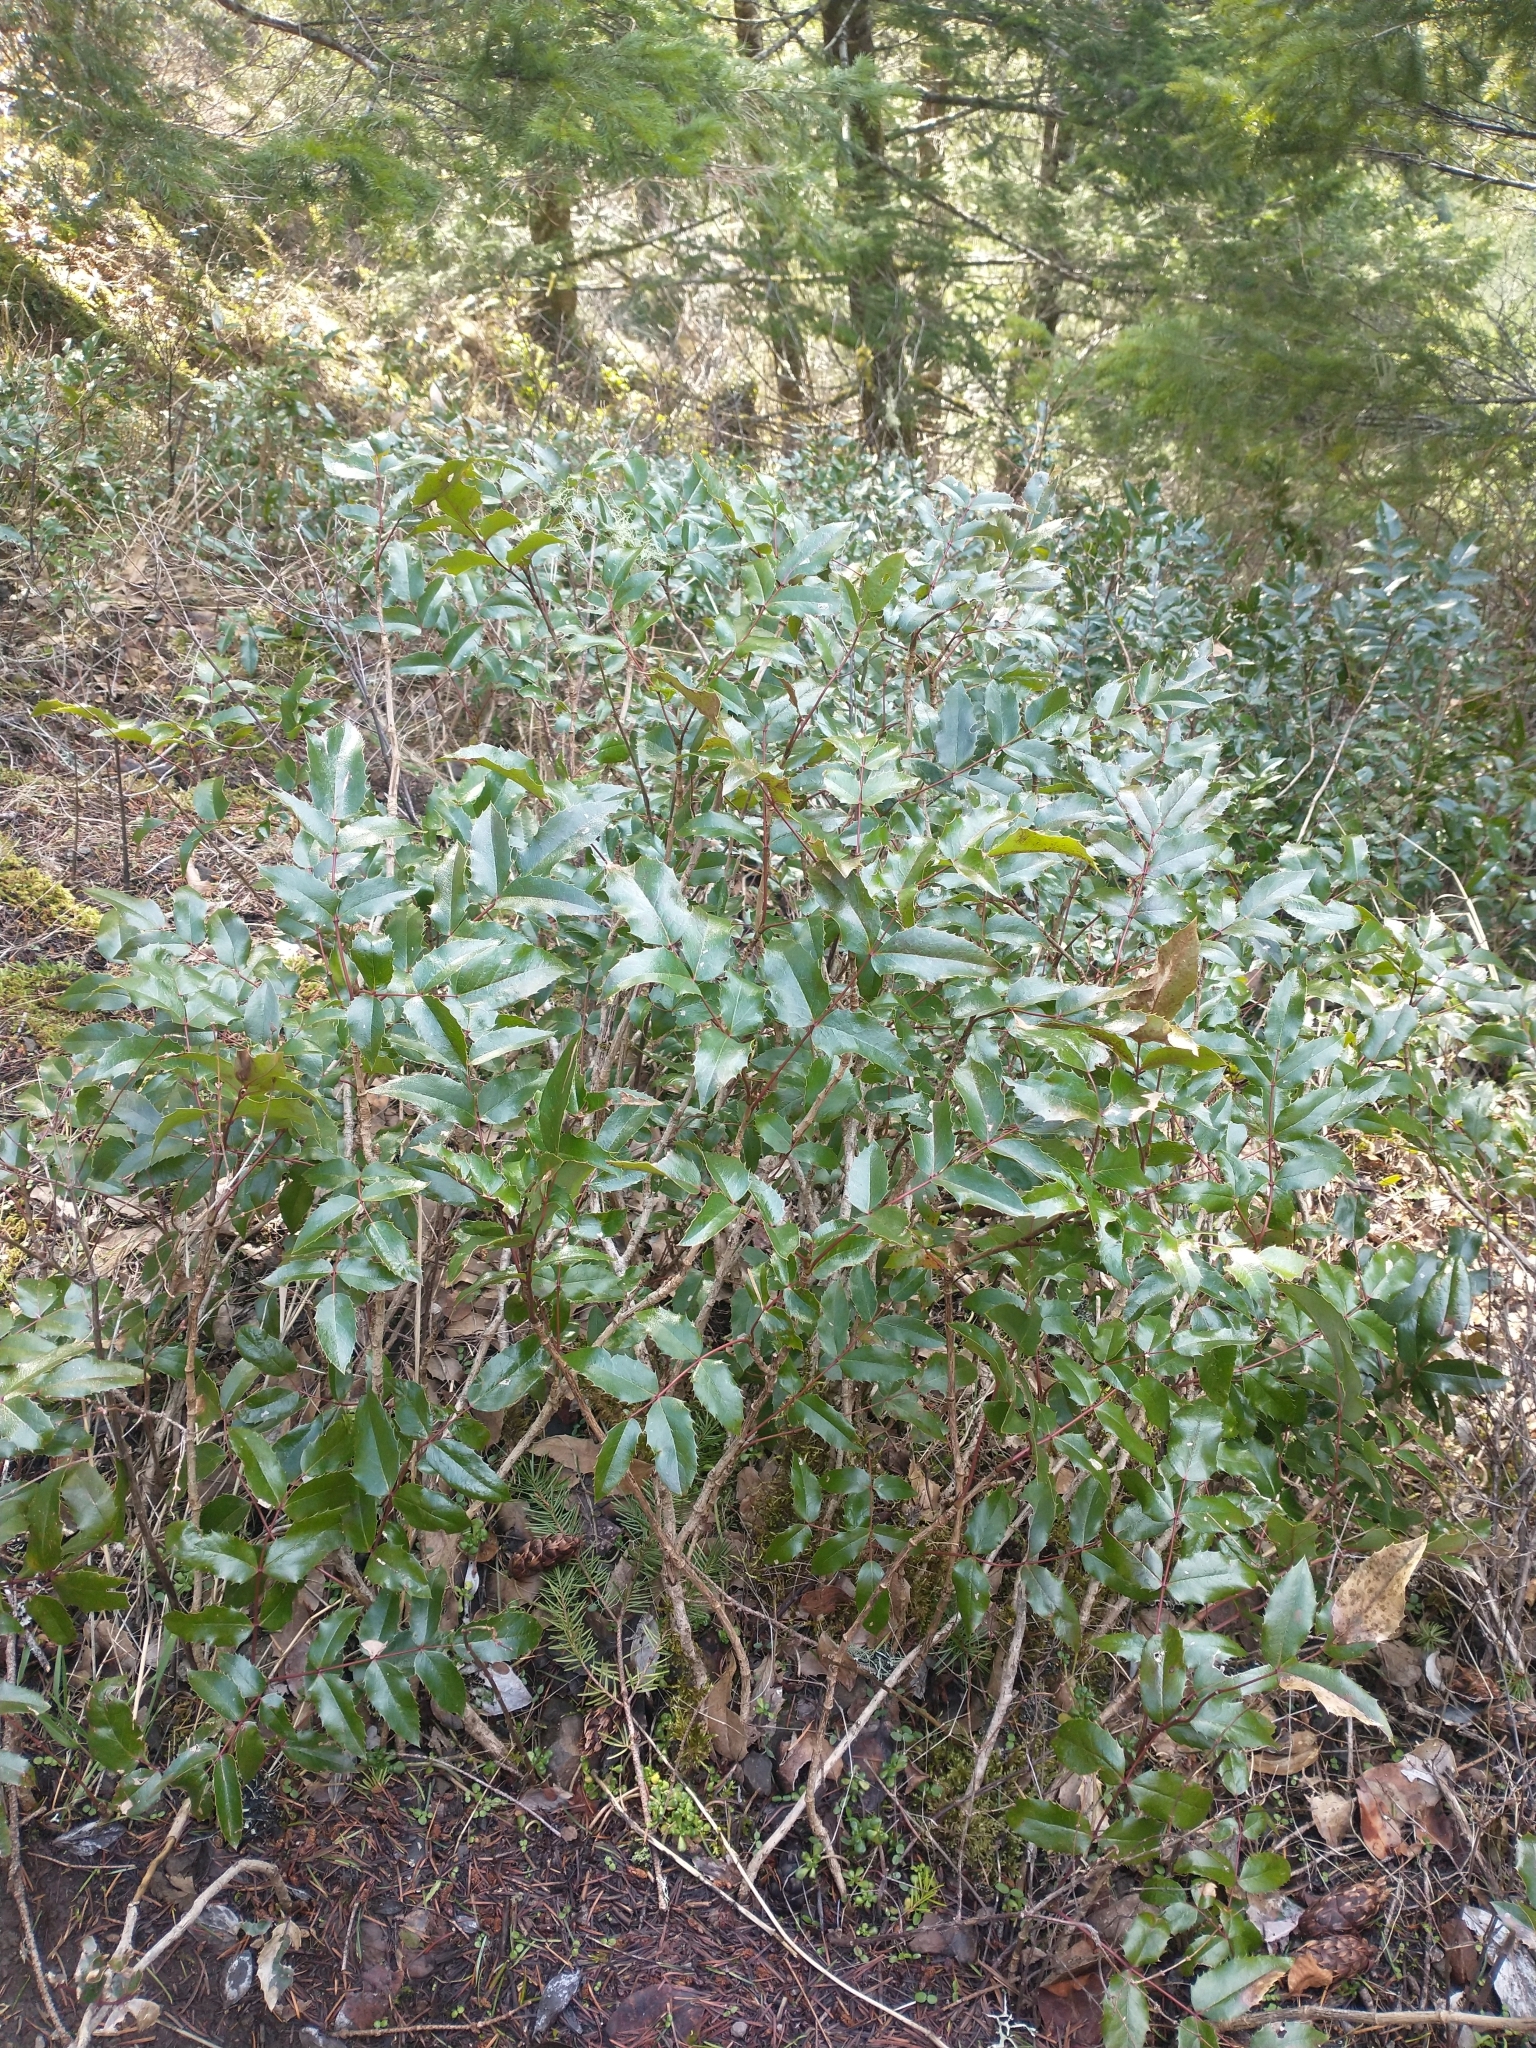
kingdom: Plantae
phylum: Tracheophyta
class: Magnoliopsida
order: Ranunculales
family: Berberidaceae
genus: Mahonia
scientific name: Mahonia aquifolium
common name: Oregon-grape
